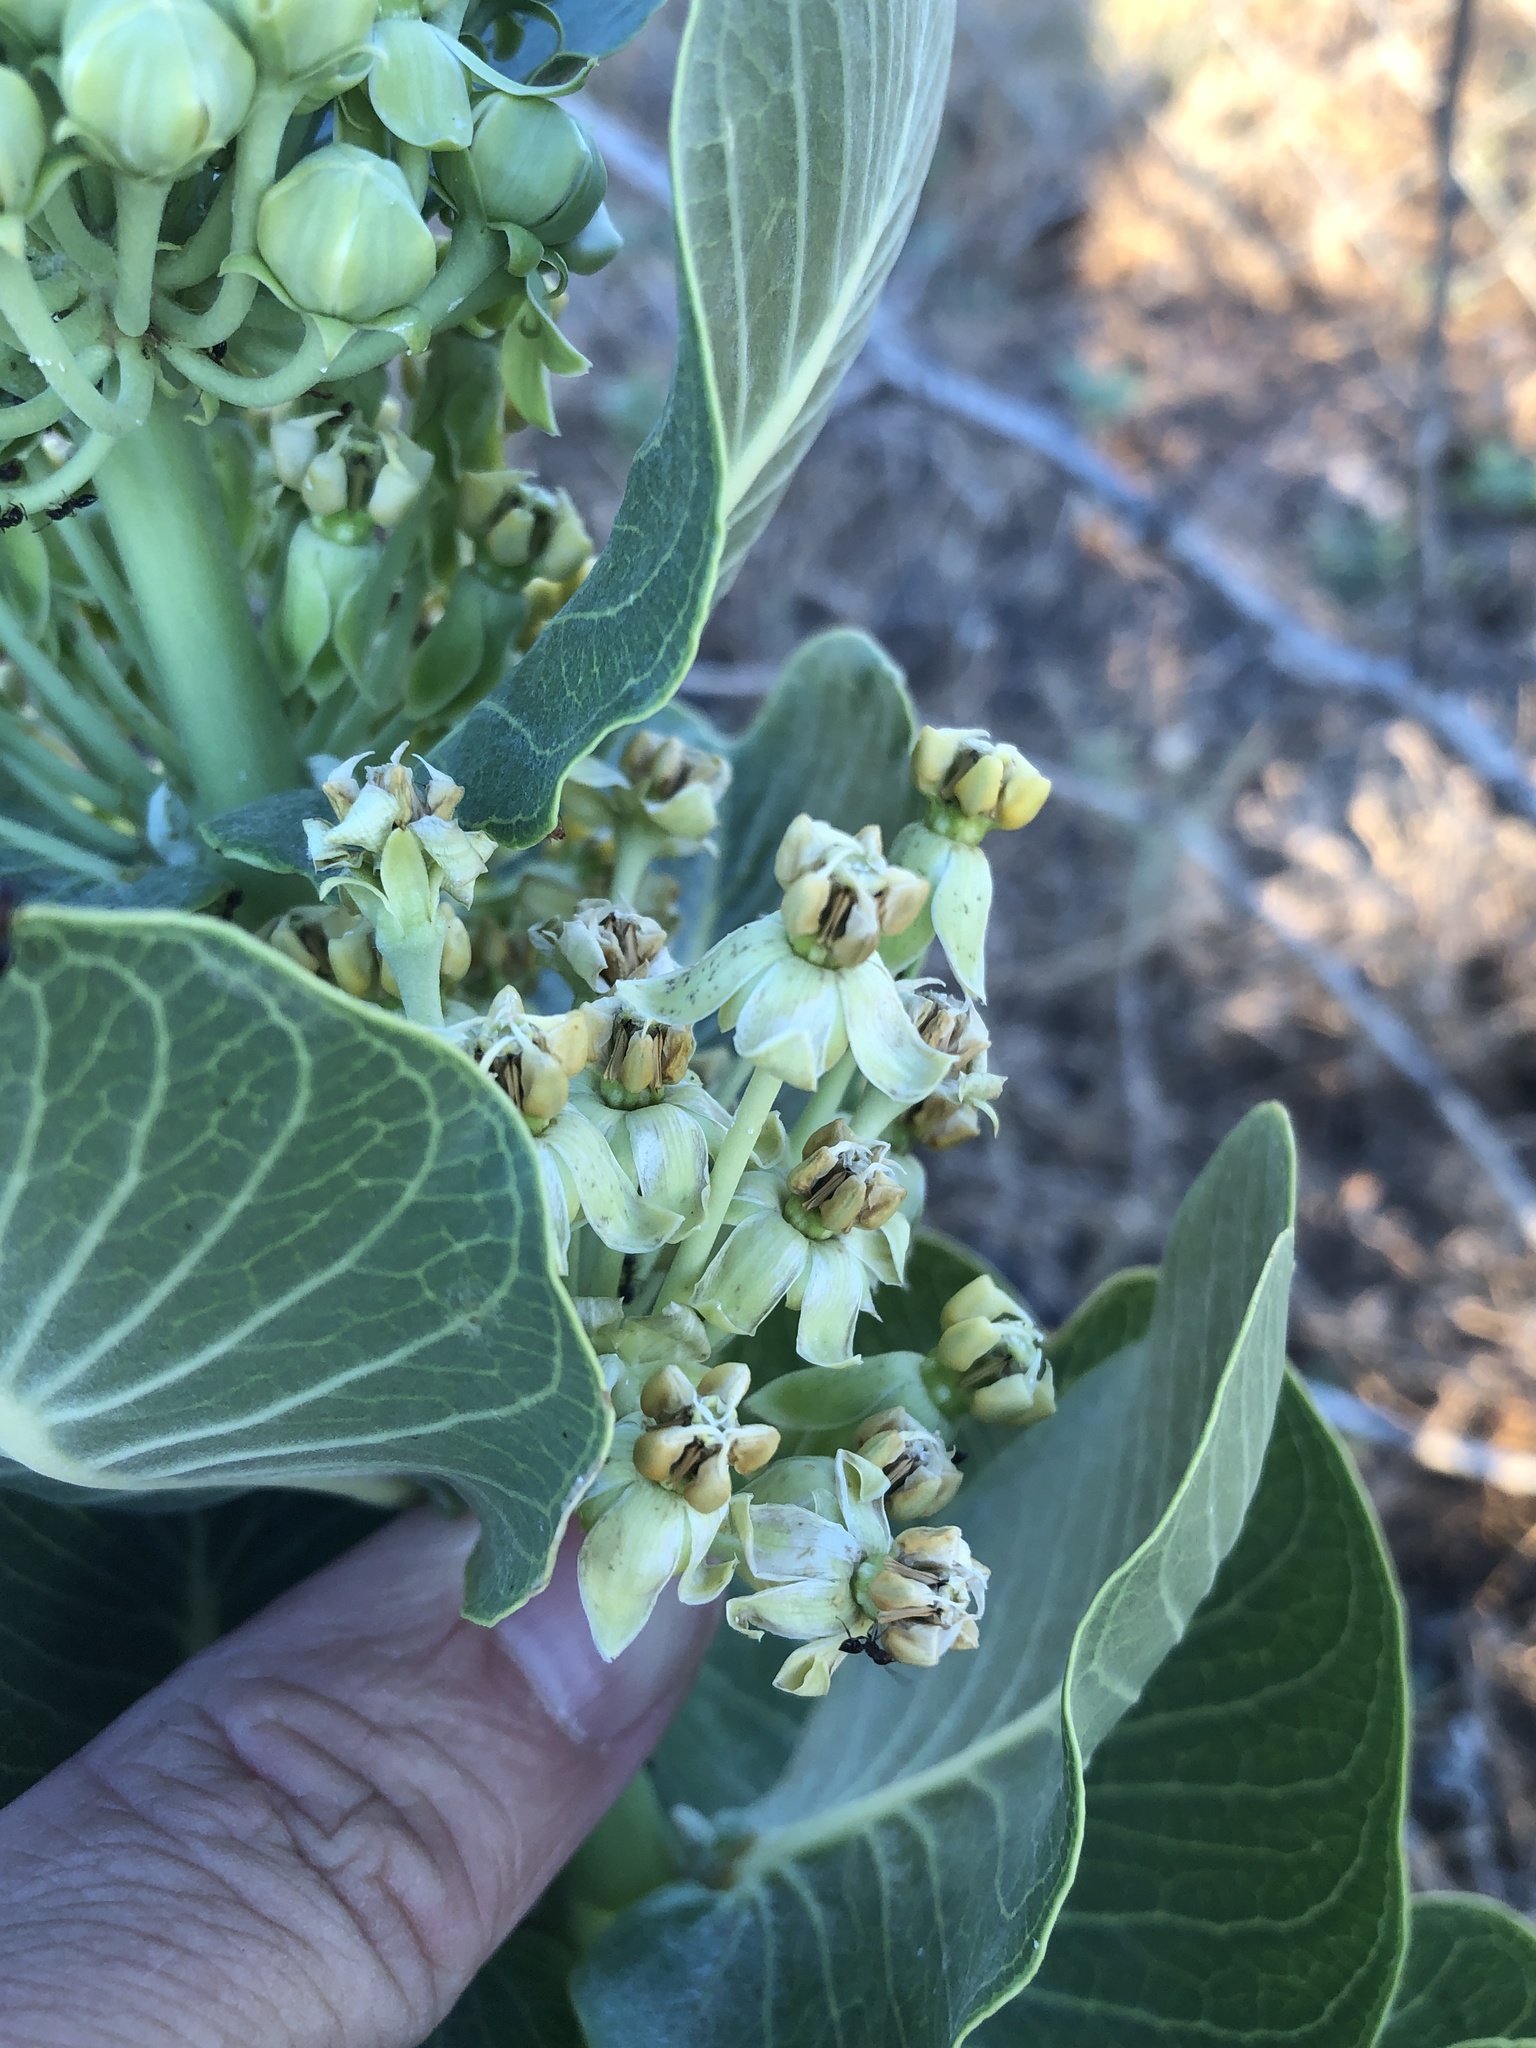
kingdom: Plantae
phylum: Tracheophyta
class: Magnoliopsida
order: Gentianales
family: Apocynaceae
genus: Asclepias
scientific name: Asclepias latifolia
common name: Broadleaf milkweed
